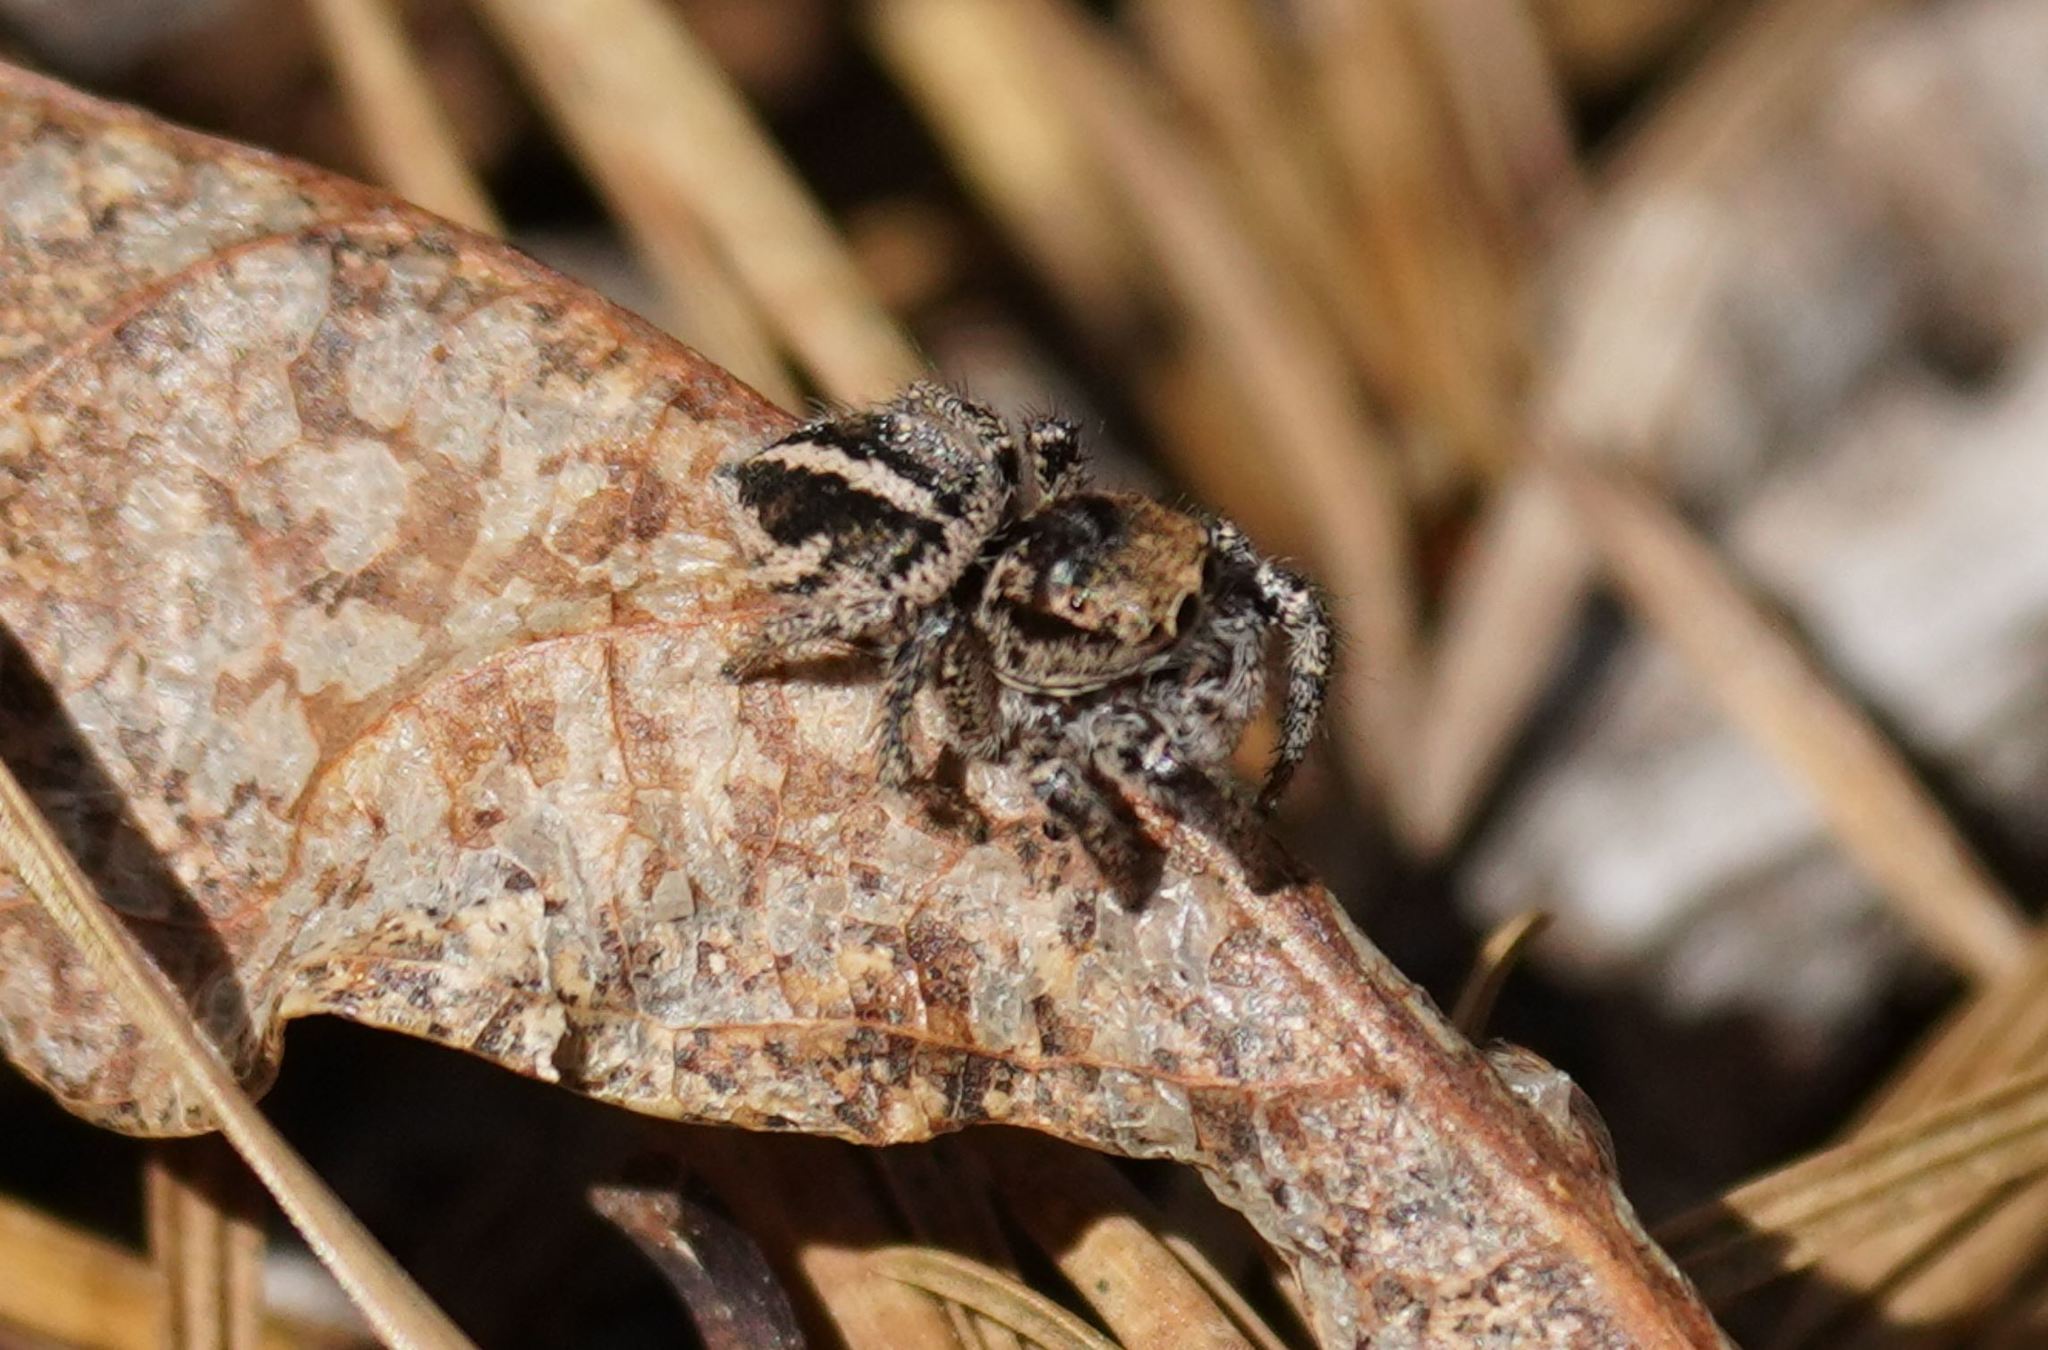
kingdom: Animalia
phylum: Arthropoda
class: Arachnida
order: Araneae
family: Salticidae
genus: Habronattus
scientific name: Habronattus orbus
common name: Orbus paradise spider
